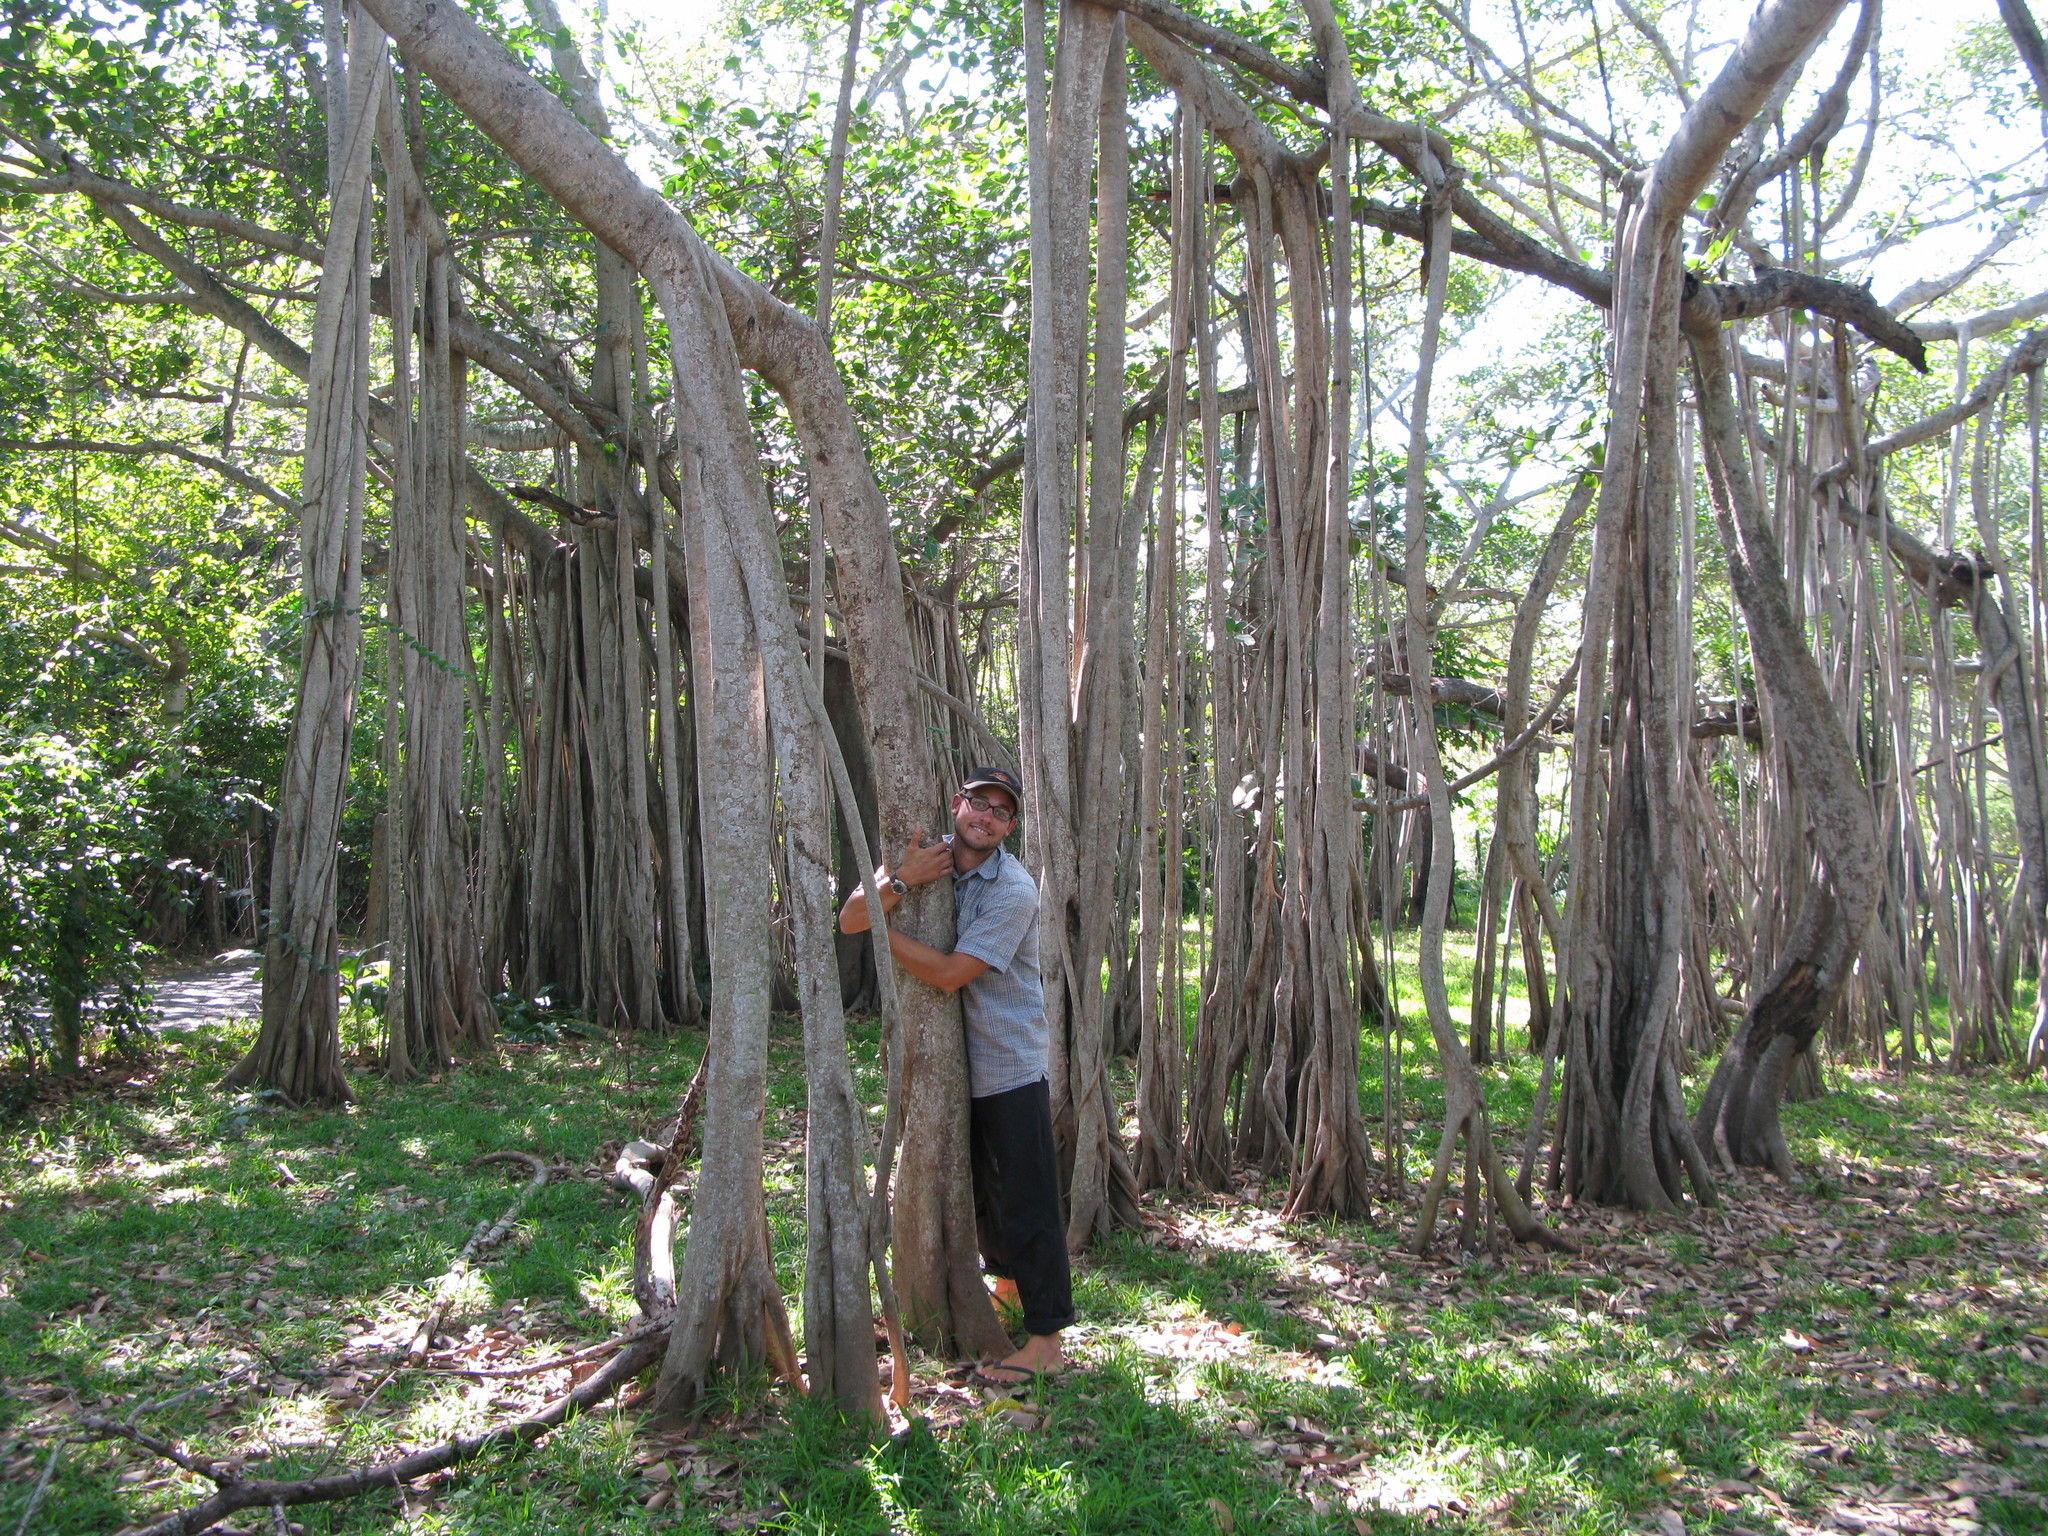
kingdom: Plantae
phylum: Tracheophyta
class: Magnoliopsida
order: Rosales
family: Moraceae
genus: Ficus
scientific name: Ficus benghalensis
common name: Indian banyan
